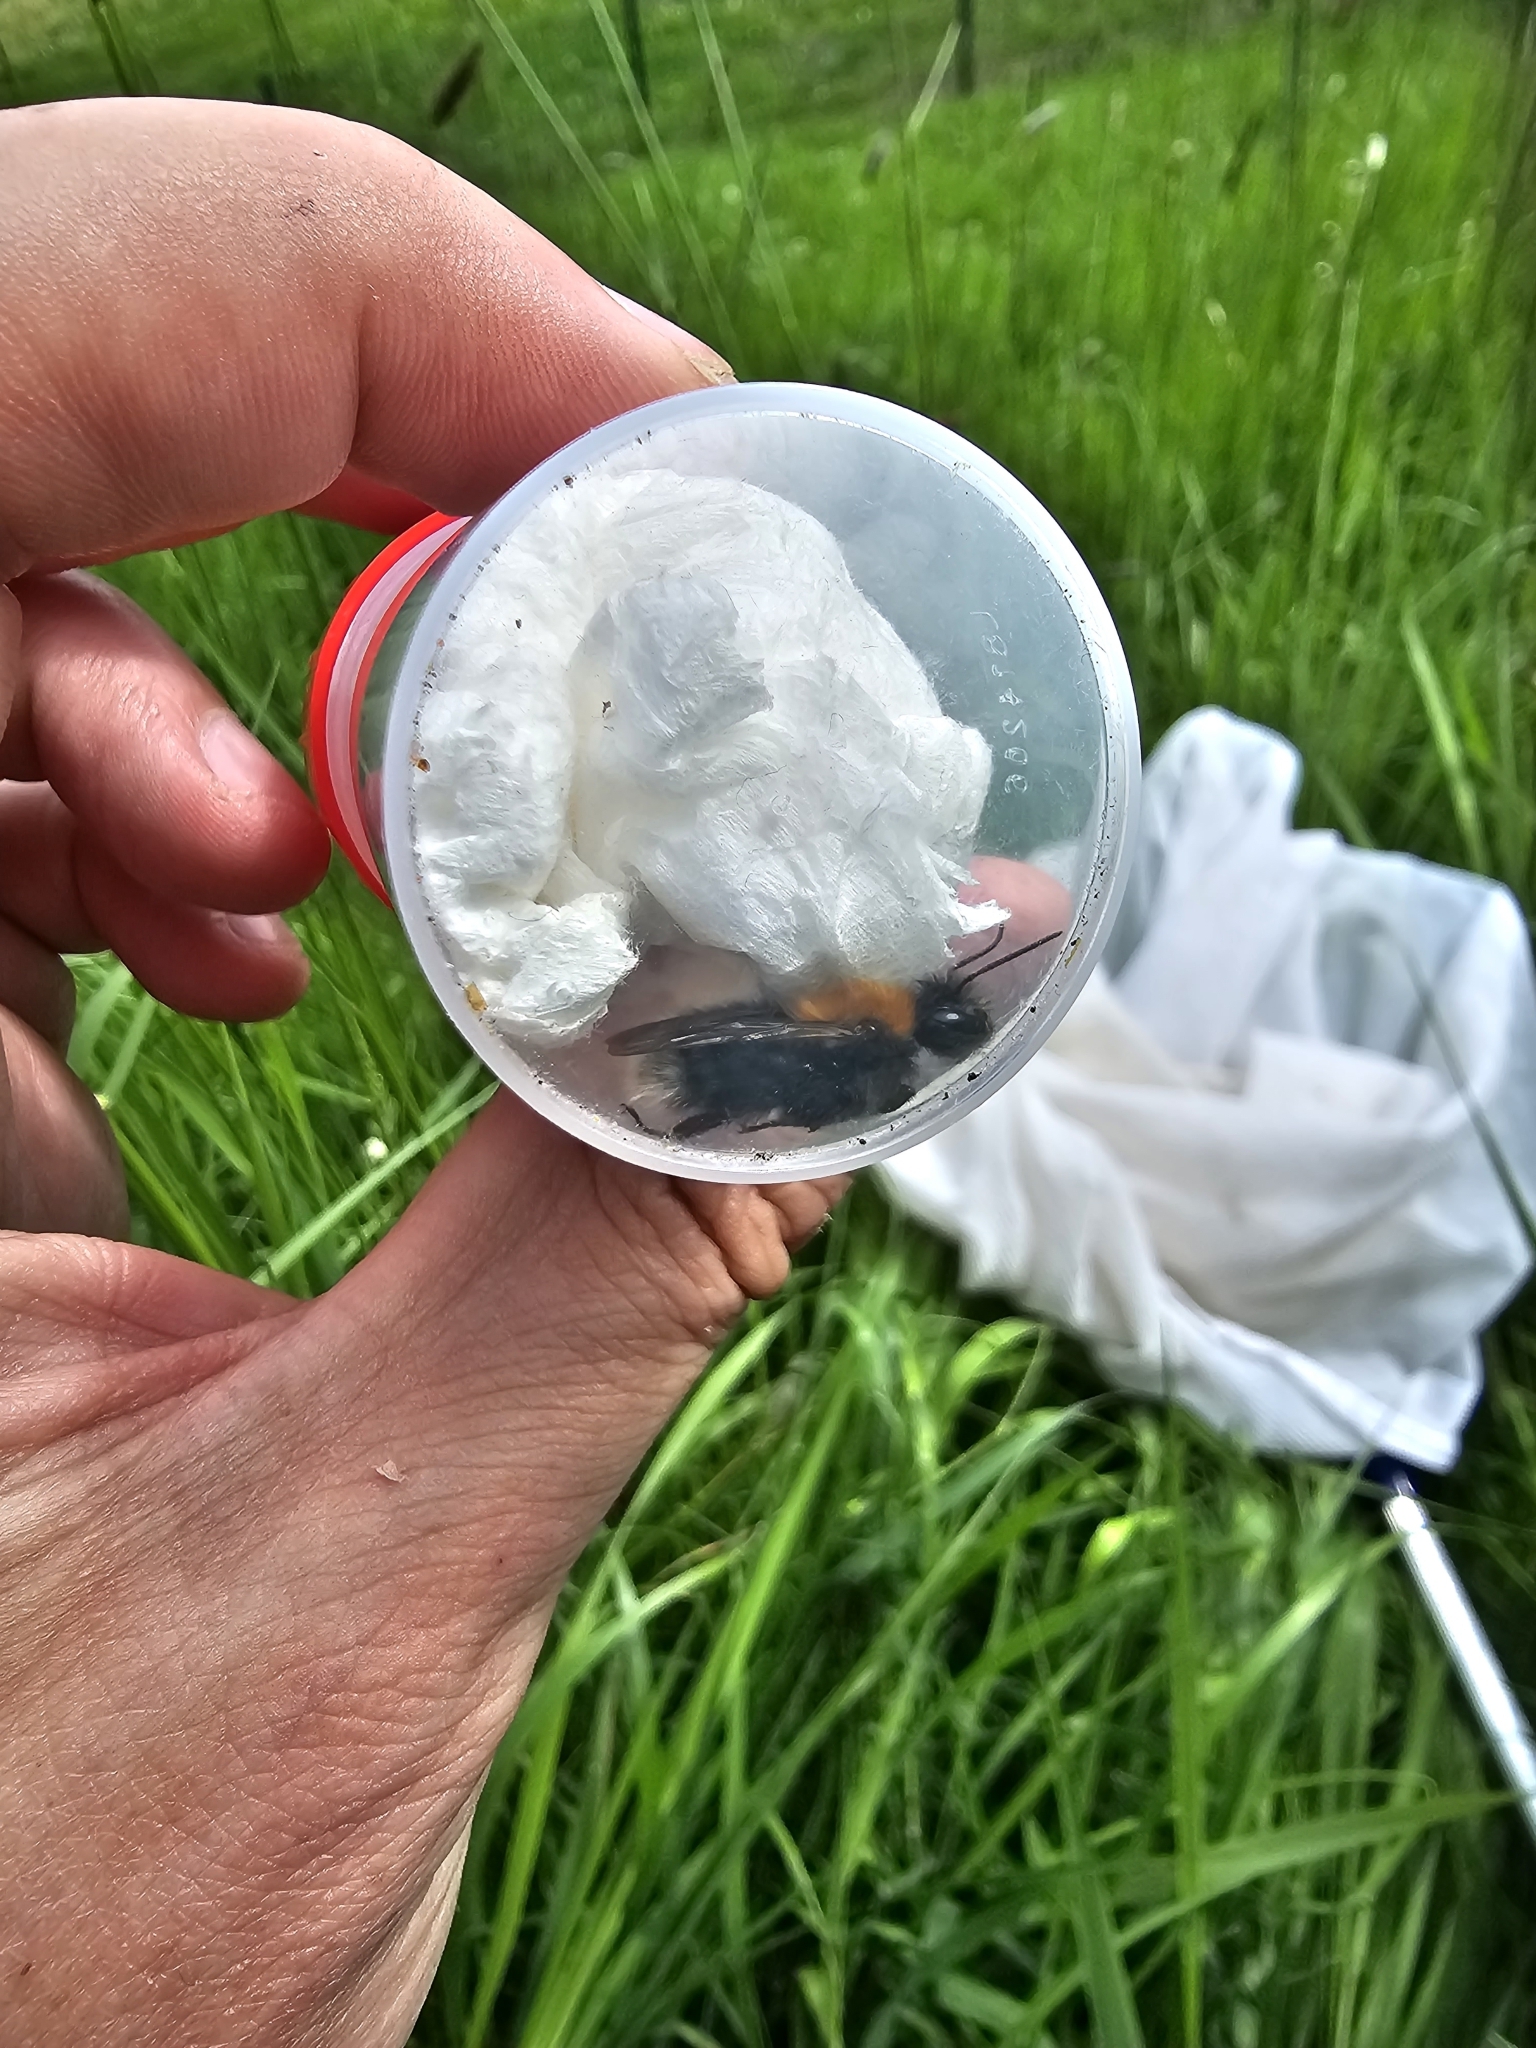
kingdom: Animalia
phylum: Arthropoda
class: Insecta
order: Hymenoptera
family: Apidae
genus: Bombus
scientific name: Bombus hypnorum
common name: New garden bumblebee
